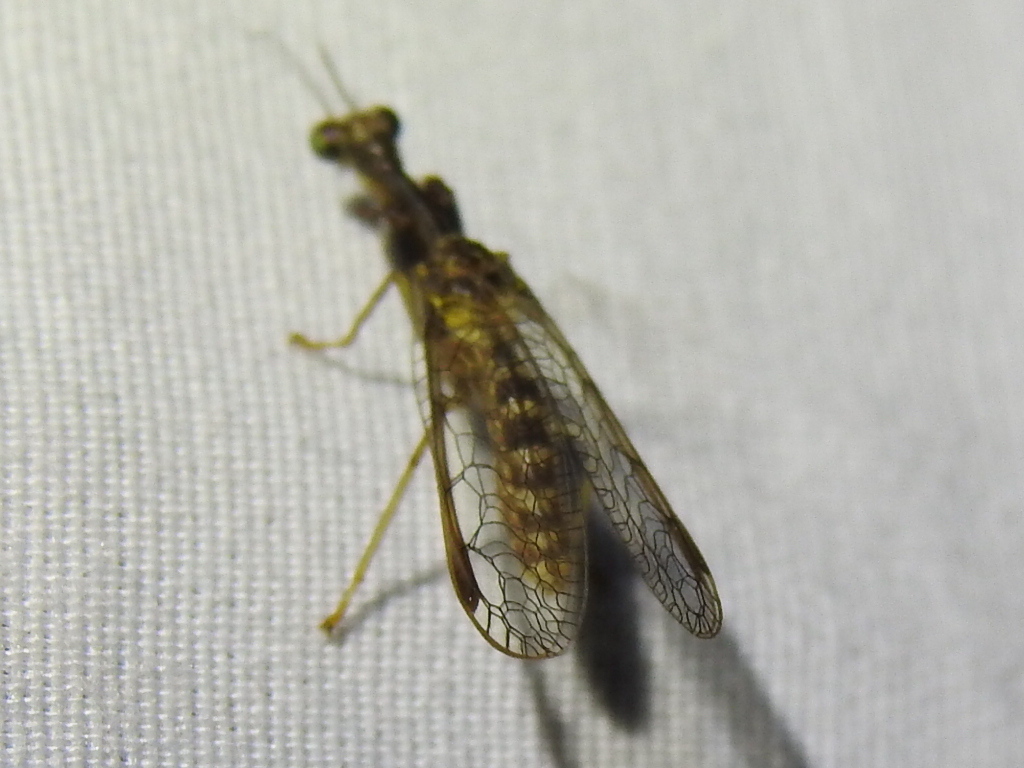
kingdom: Animalia
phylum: Arthropoda
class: Insecta
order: Neuroptera
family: Mantispidae
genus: Dicromantispa
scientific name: Dicromantispa sayi
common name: Say's mantidfly
